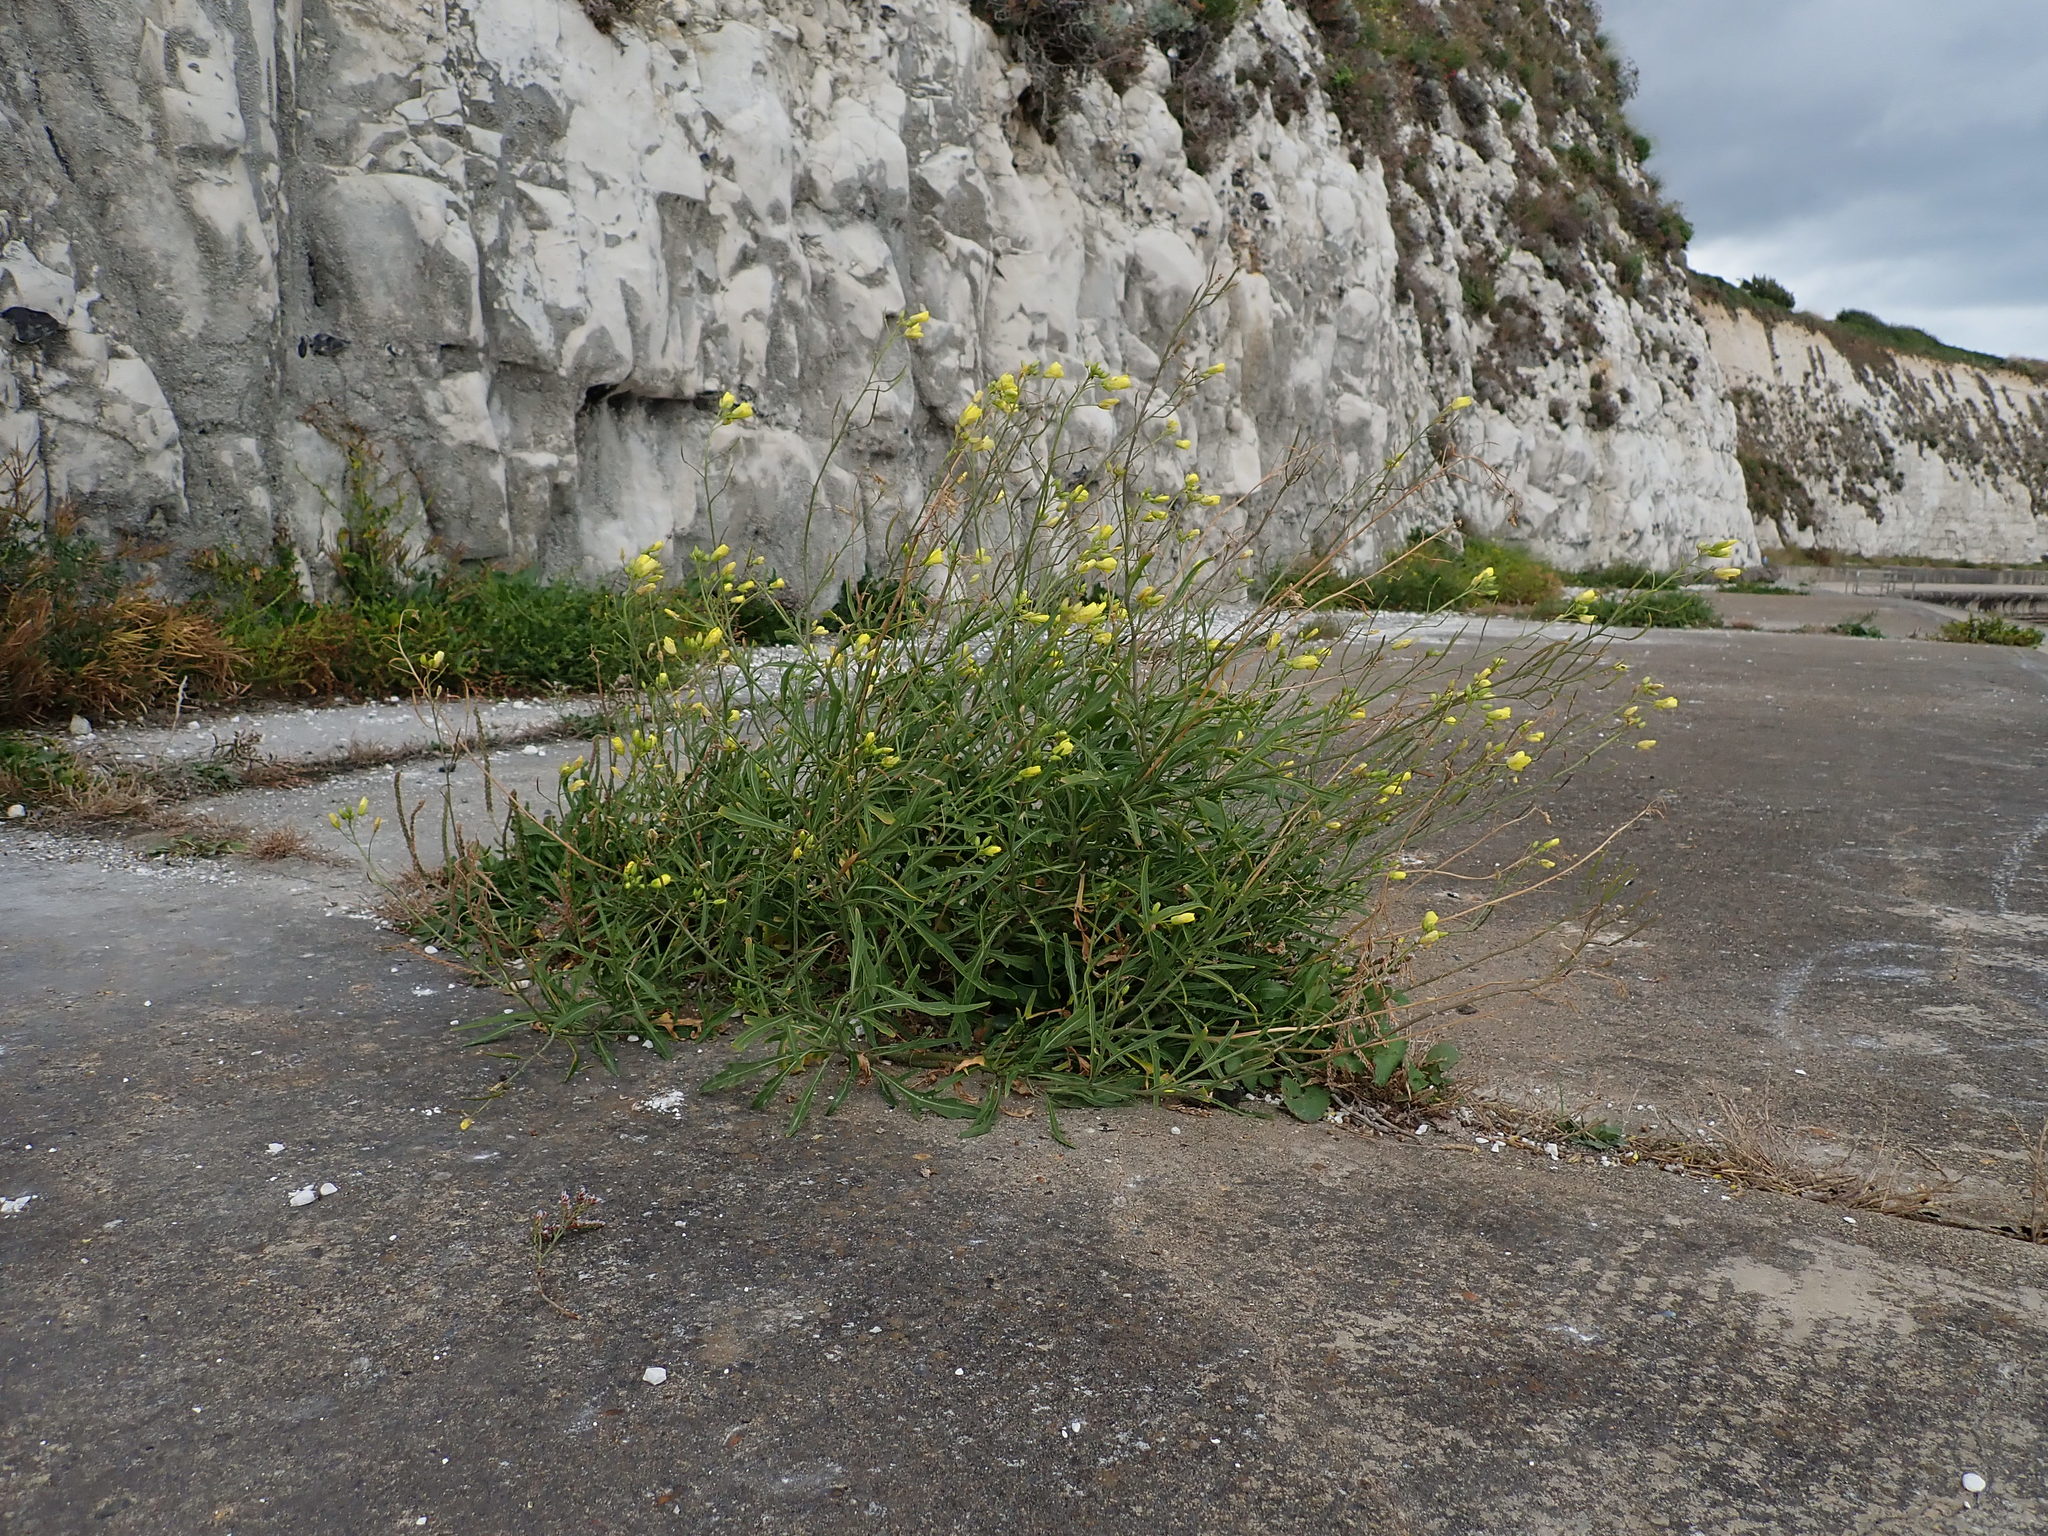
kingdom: Plantae
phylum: Tracheophyta
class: Magnoliopsida
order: Brassicales
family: Brassicaceae
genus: Diplotaxis
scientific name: Diplotaxis tenuifolia
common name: Perennial wall-rocket
